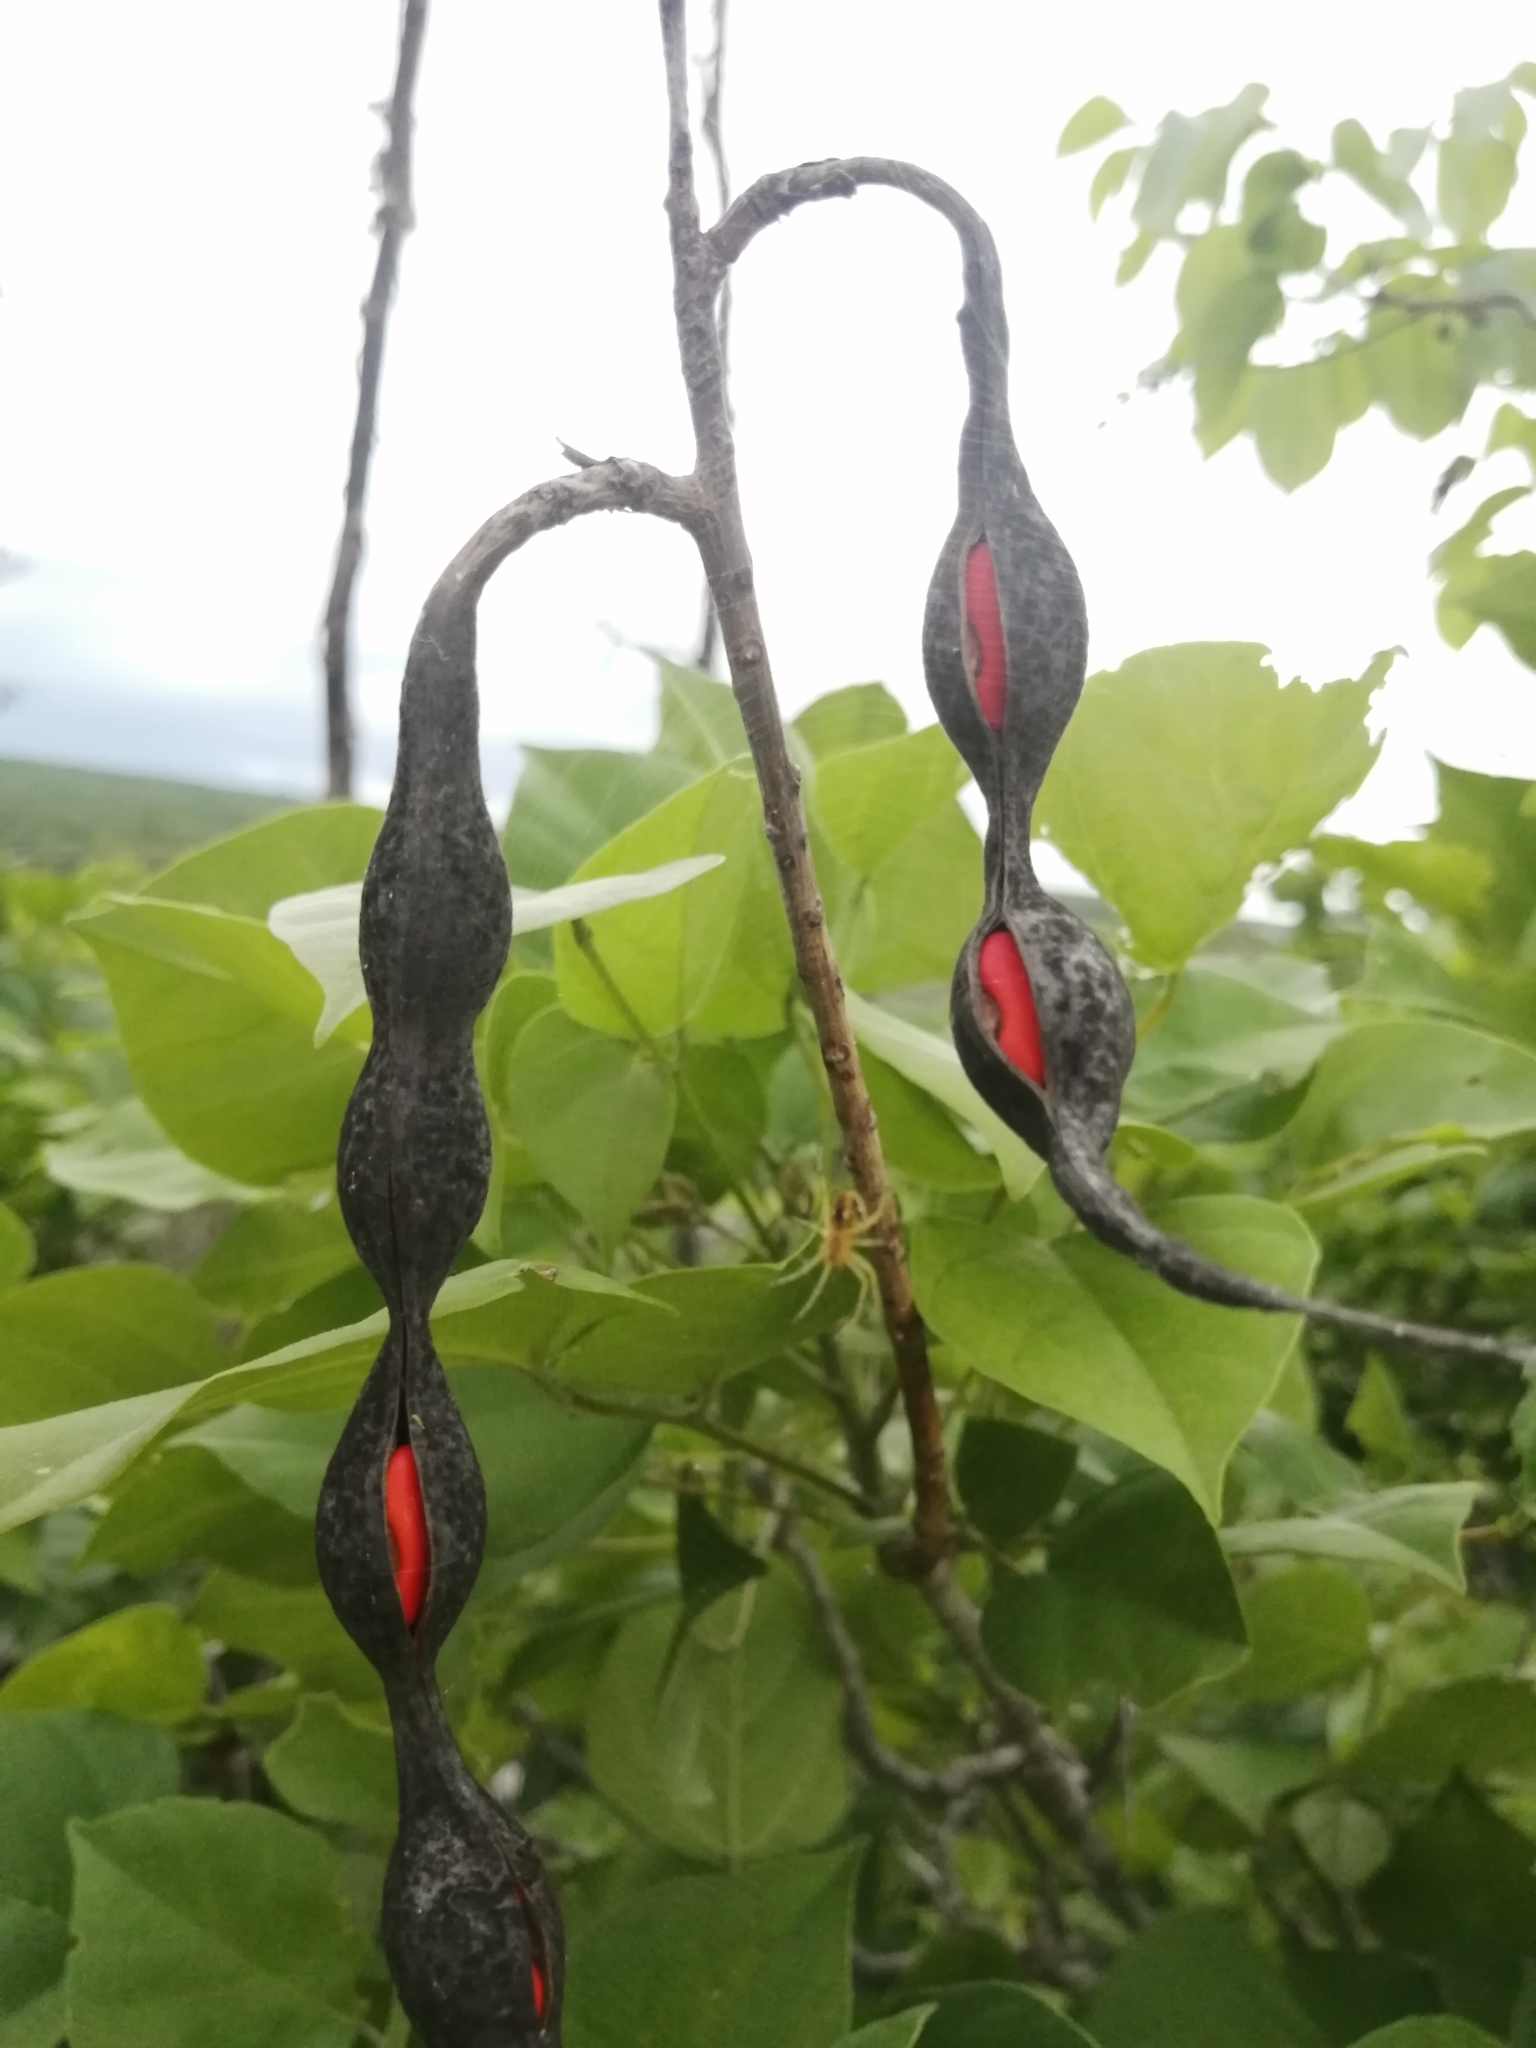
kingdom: Plantae
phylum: Tracheophyta
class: Magnoliopsida
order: Fabales
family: Fabaceae
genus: Erythrina
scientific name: Erythrina standleyana
